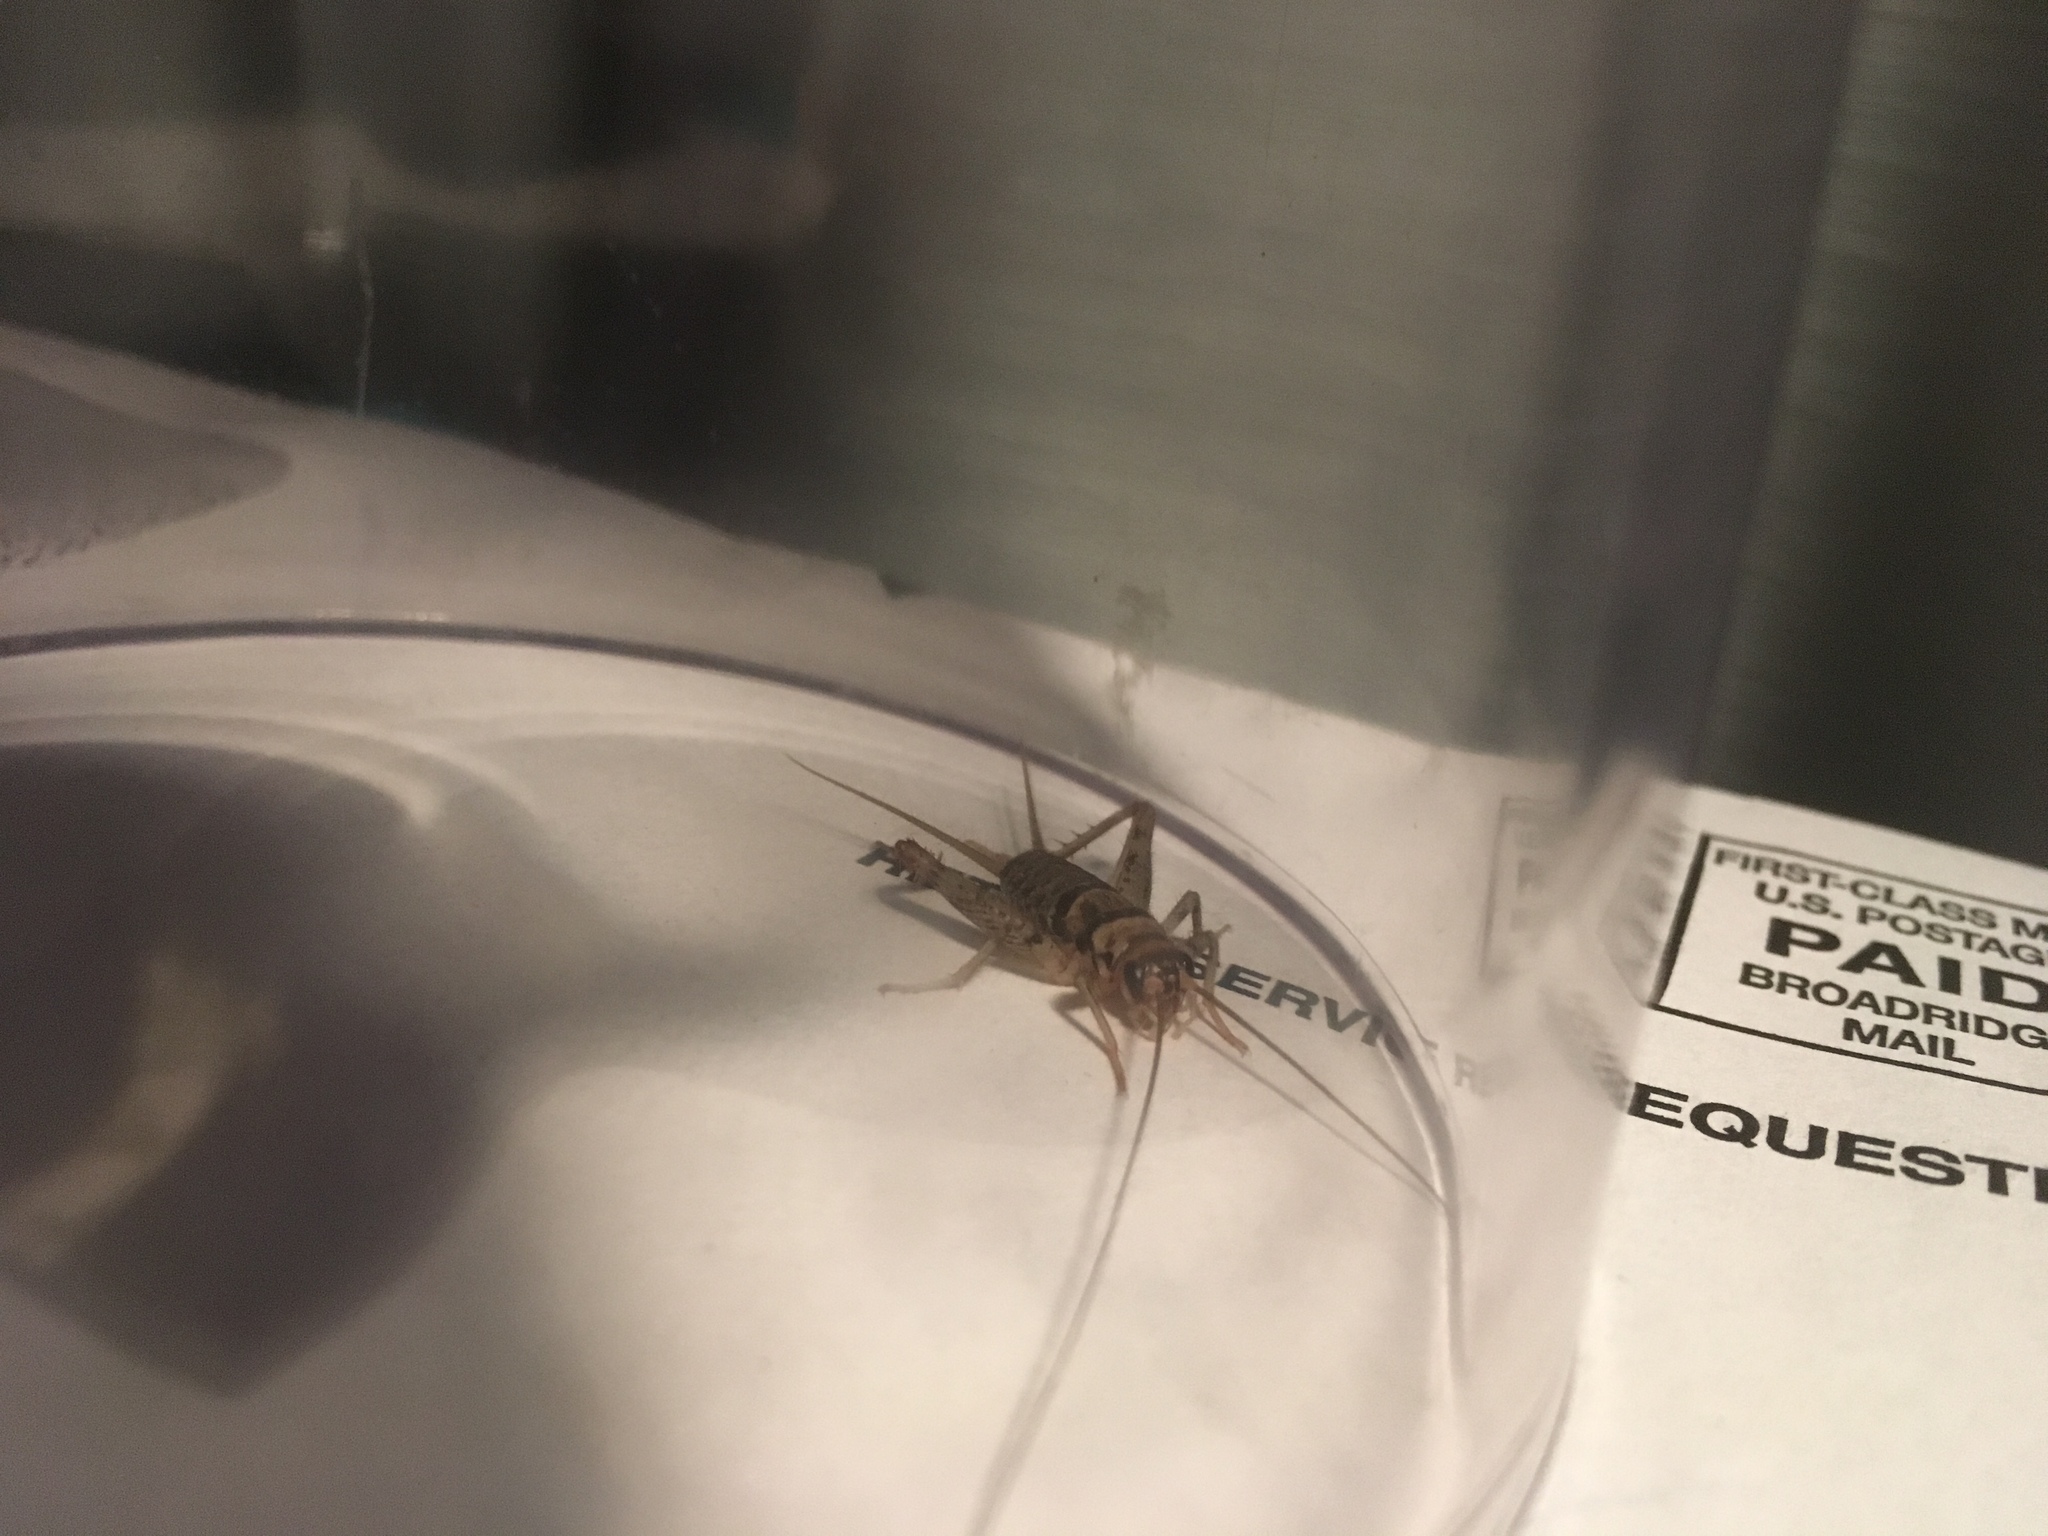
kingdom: Animalia
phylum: Arthropoda
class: Insecta
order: Orthoptera
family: Gryllidae
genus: Gryllodes
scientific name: Gryllodes sigillatus
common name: Tropical house cricket
